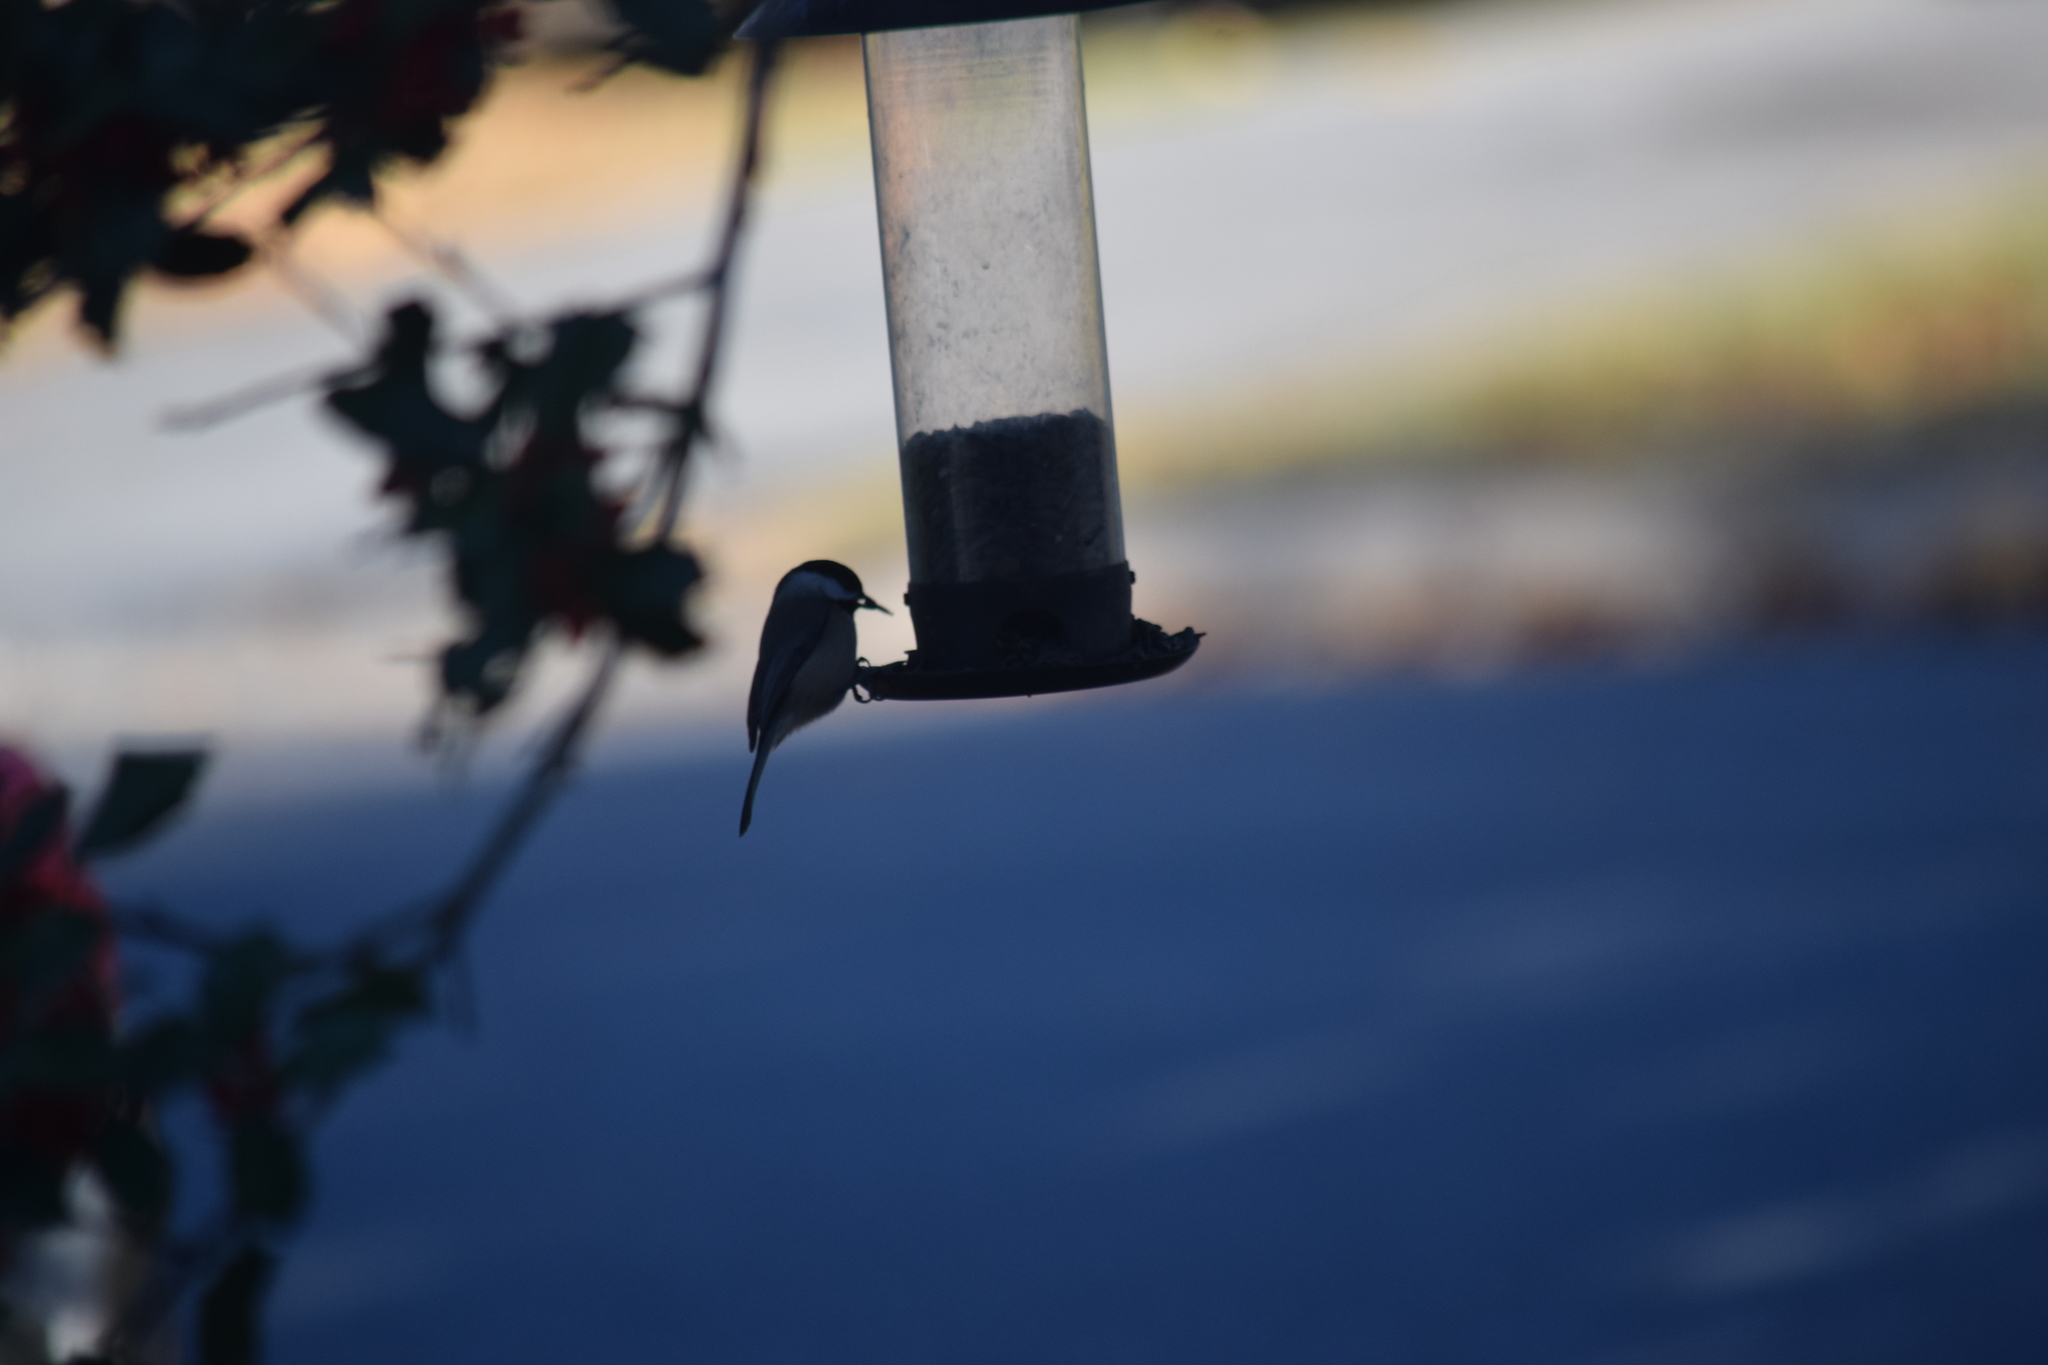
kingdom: Animalia
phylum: Chordata
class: Aves
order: Passeriformes
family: Paridae
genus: Poecile
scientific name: Poecile carolinensis
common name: Carolina chickadee
